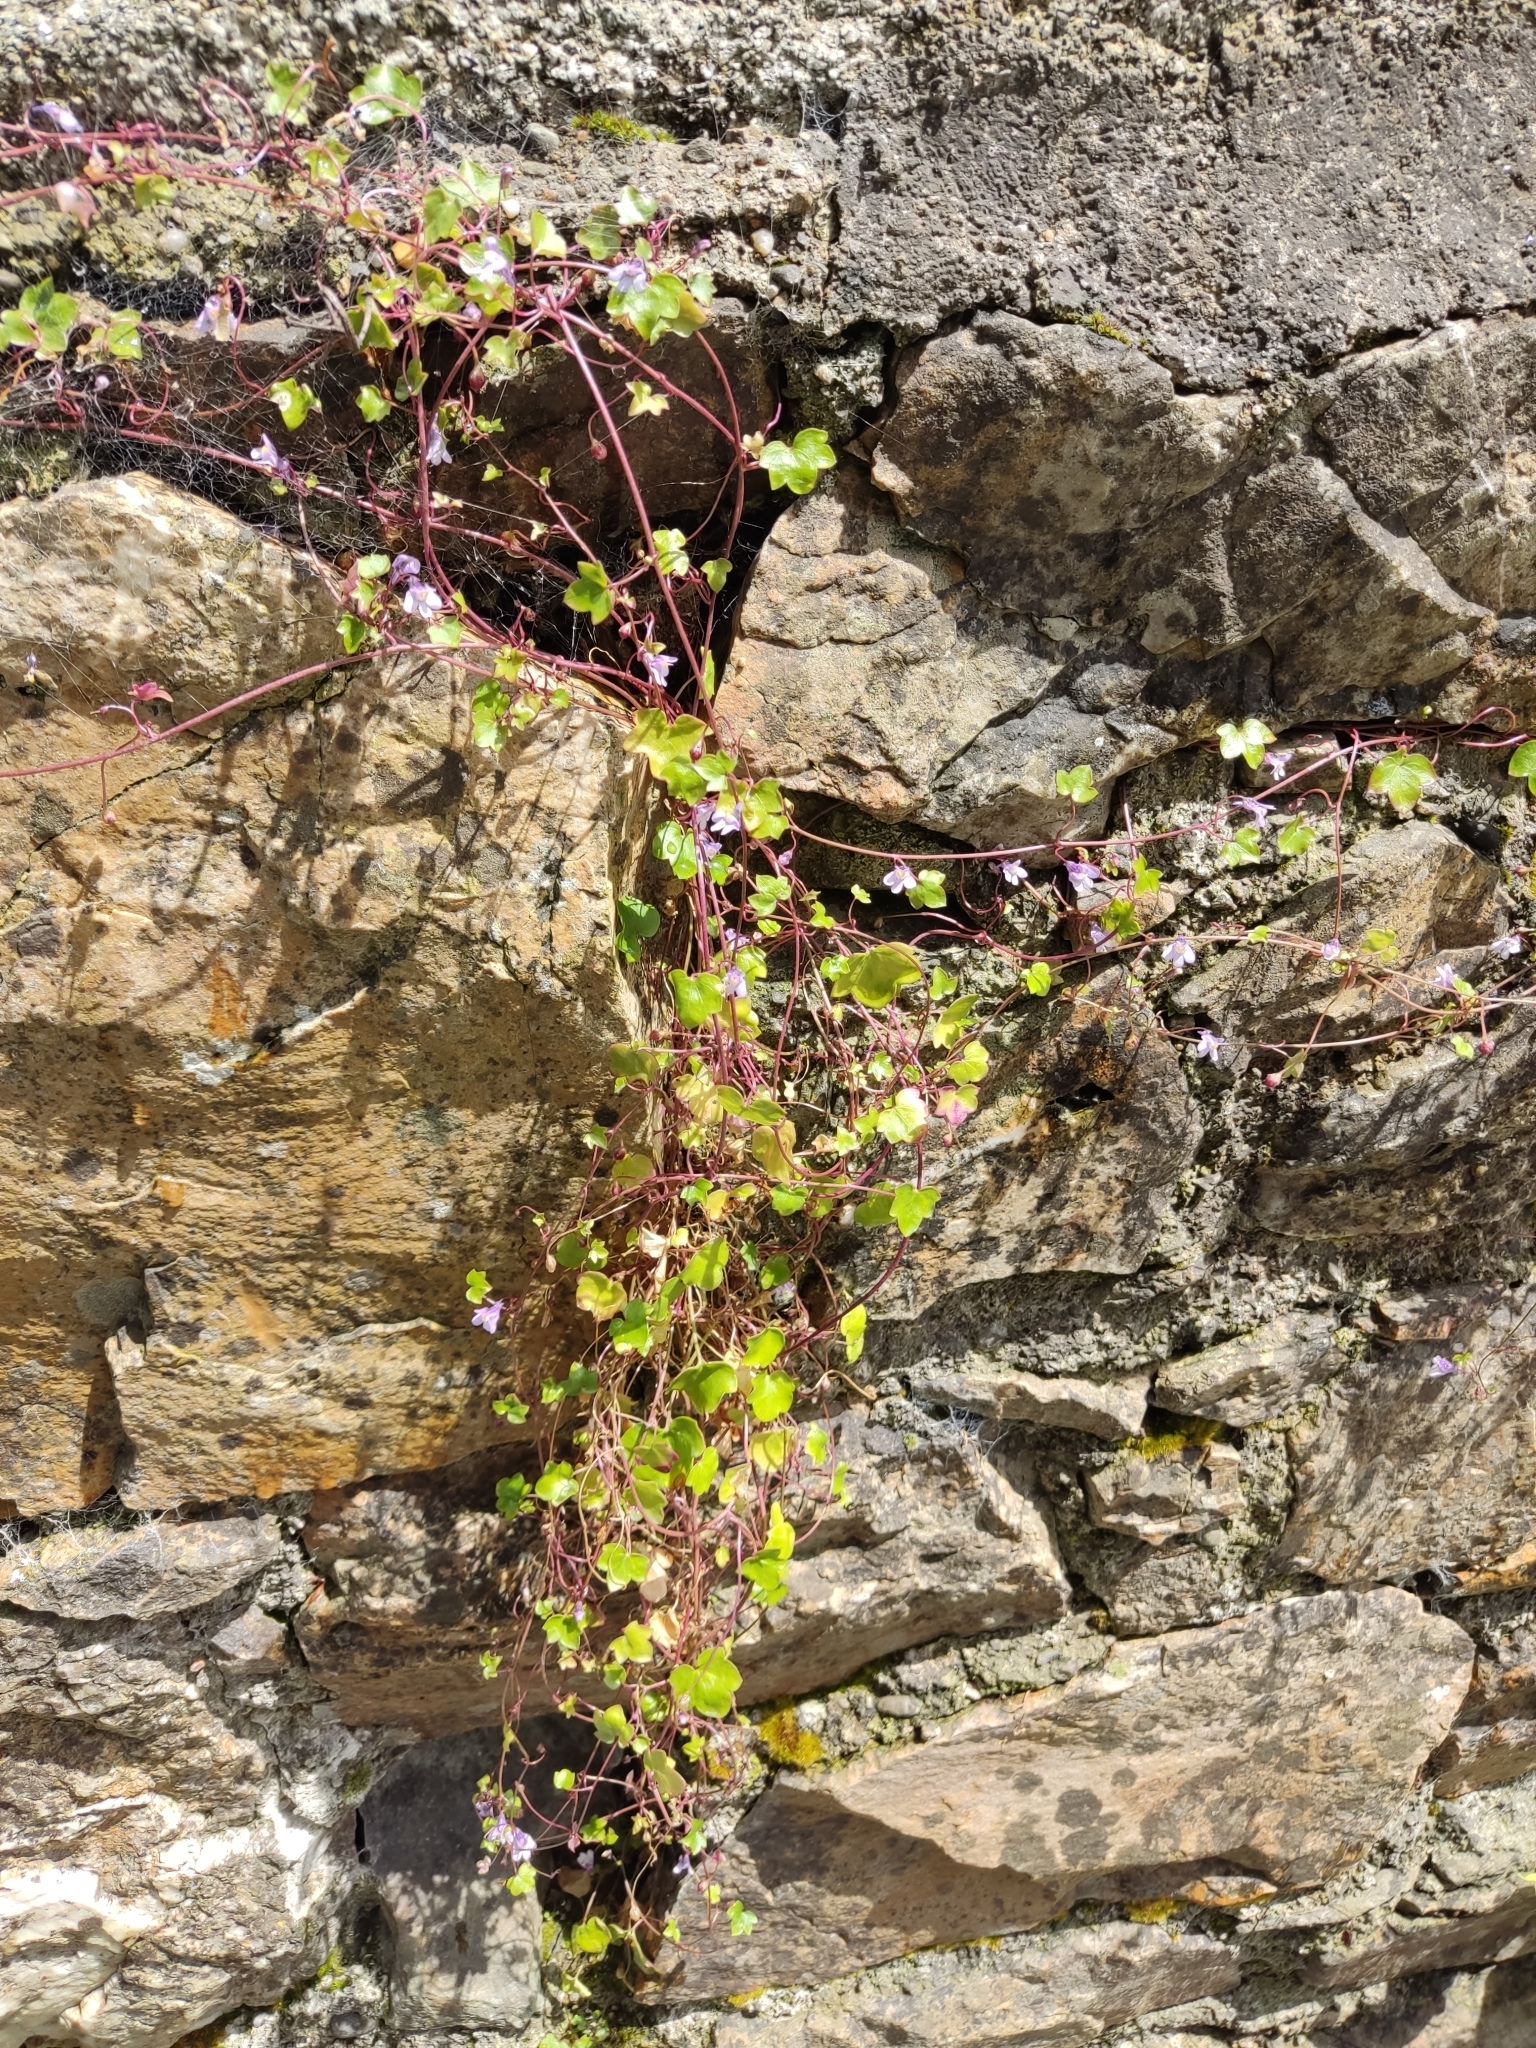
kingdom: Plantae
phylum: Tracheophyta
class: Magnoliopsida
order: Lamiales
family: Plantaginaceae
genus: Cymbalaria
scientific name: Cymbalaria muralis
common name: Ivy-leaved toadflax
